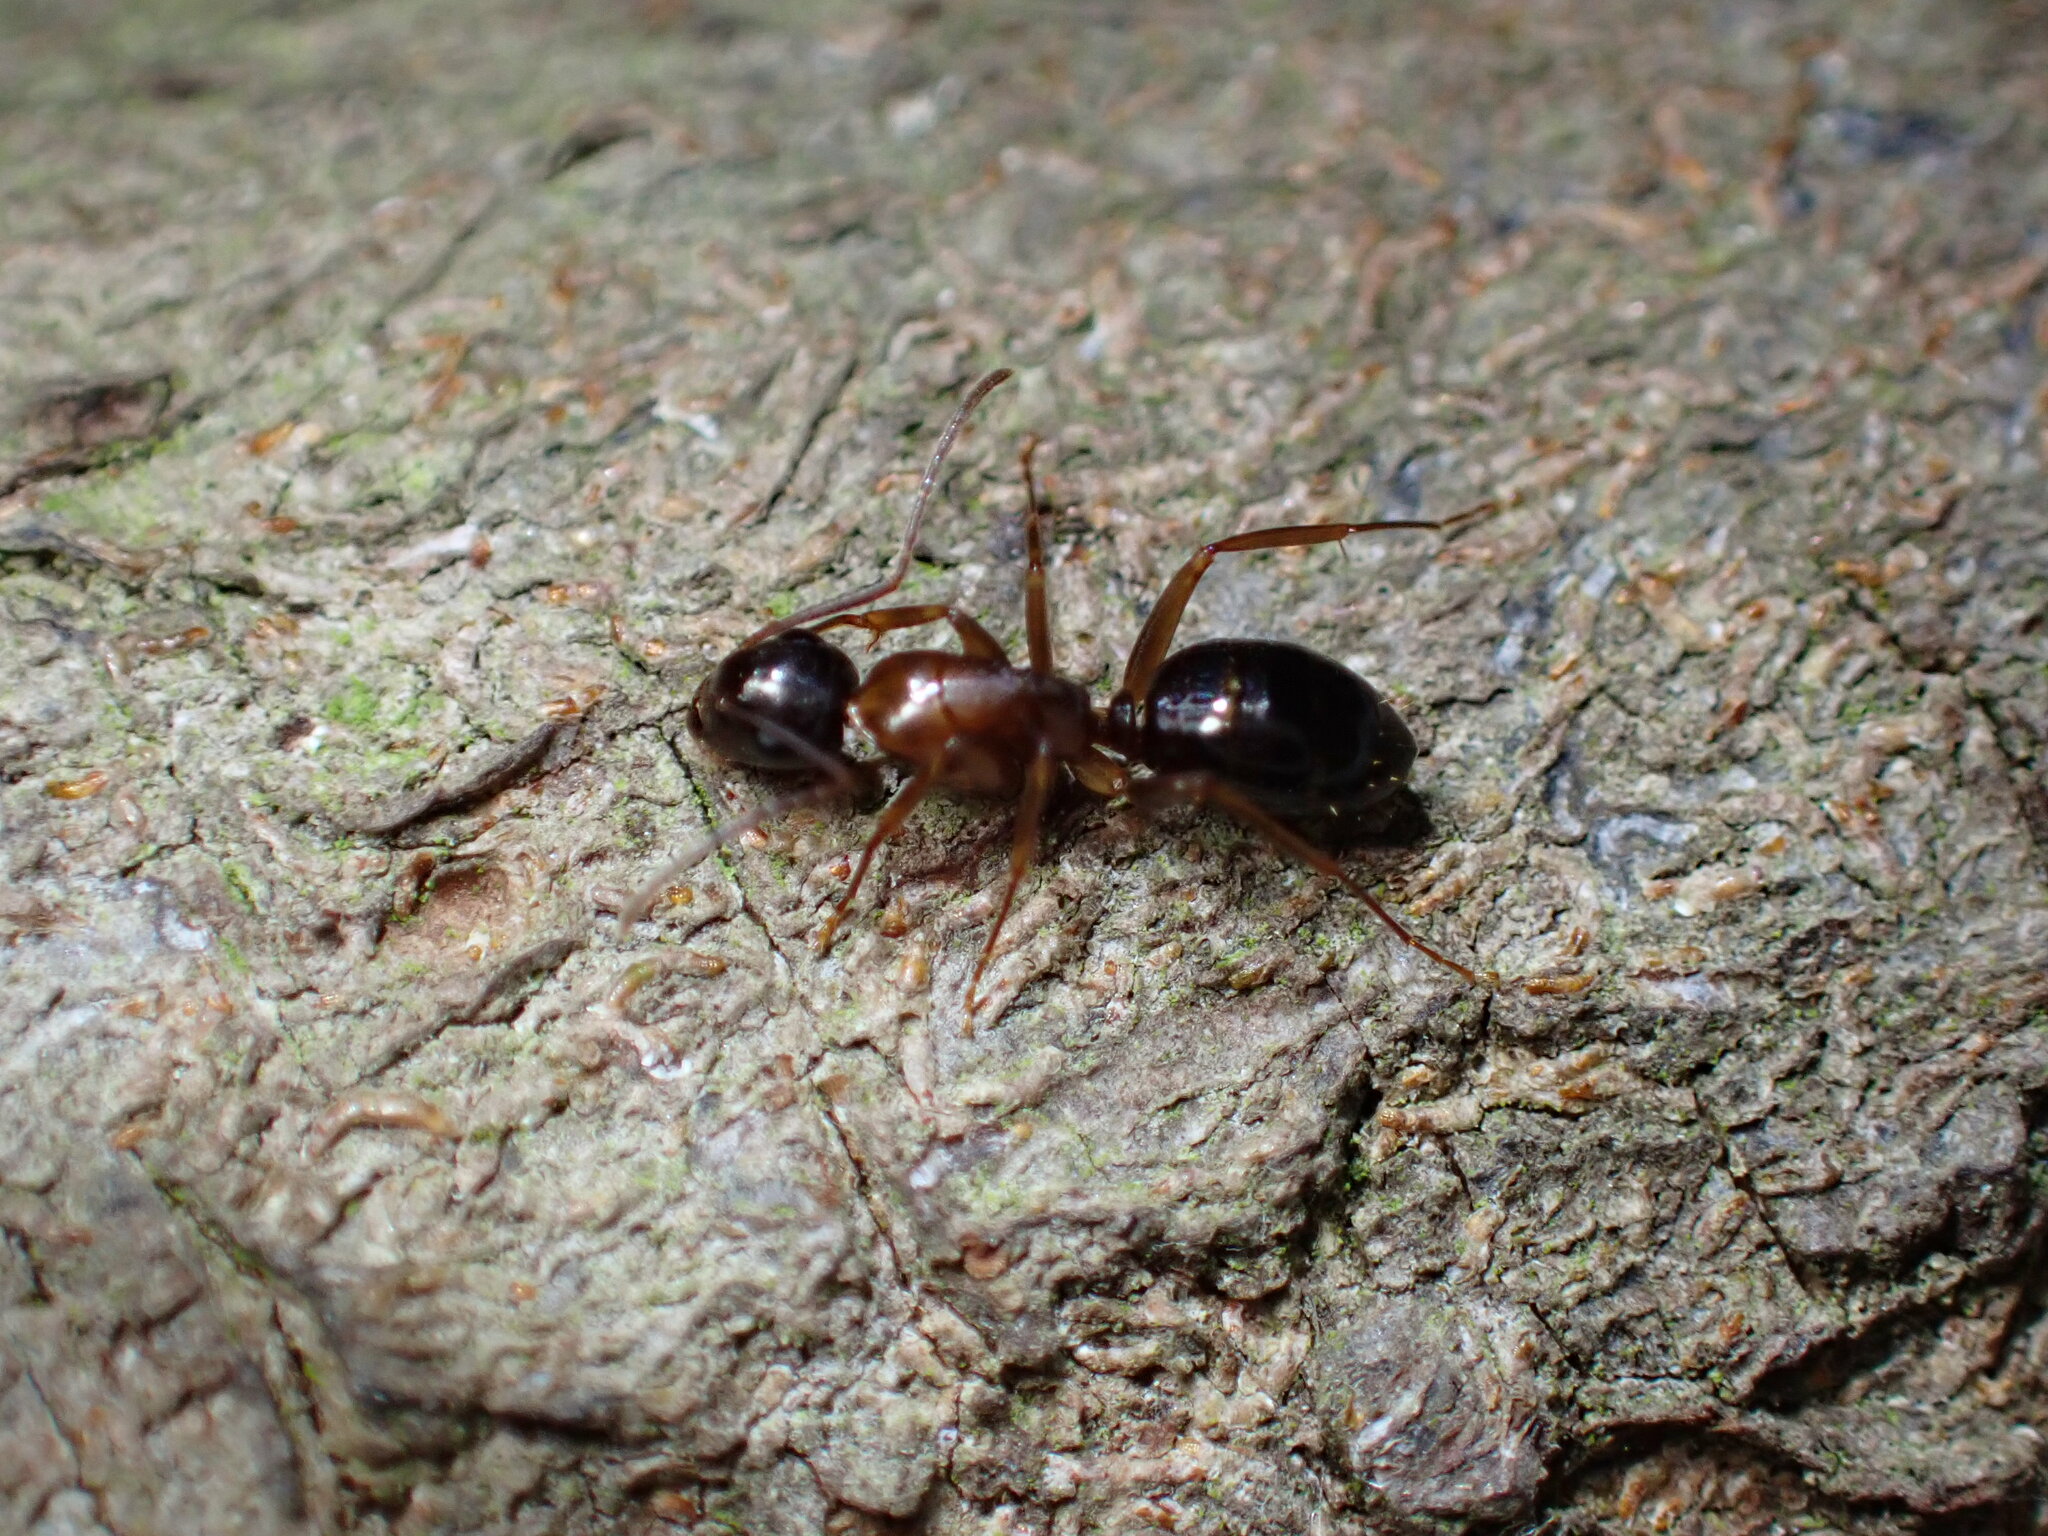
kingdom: Animalia
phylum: Arthropoda
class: Insecta
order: Hymenoptera
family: Formicidae
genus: Camponotus
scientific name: Camponotus clarithorax
